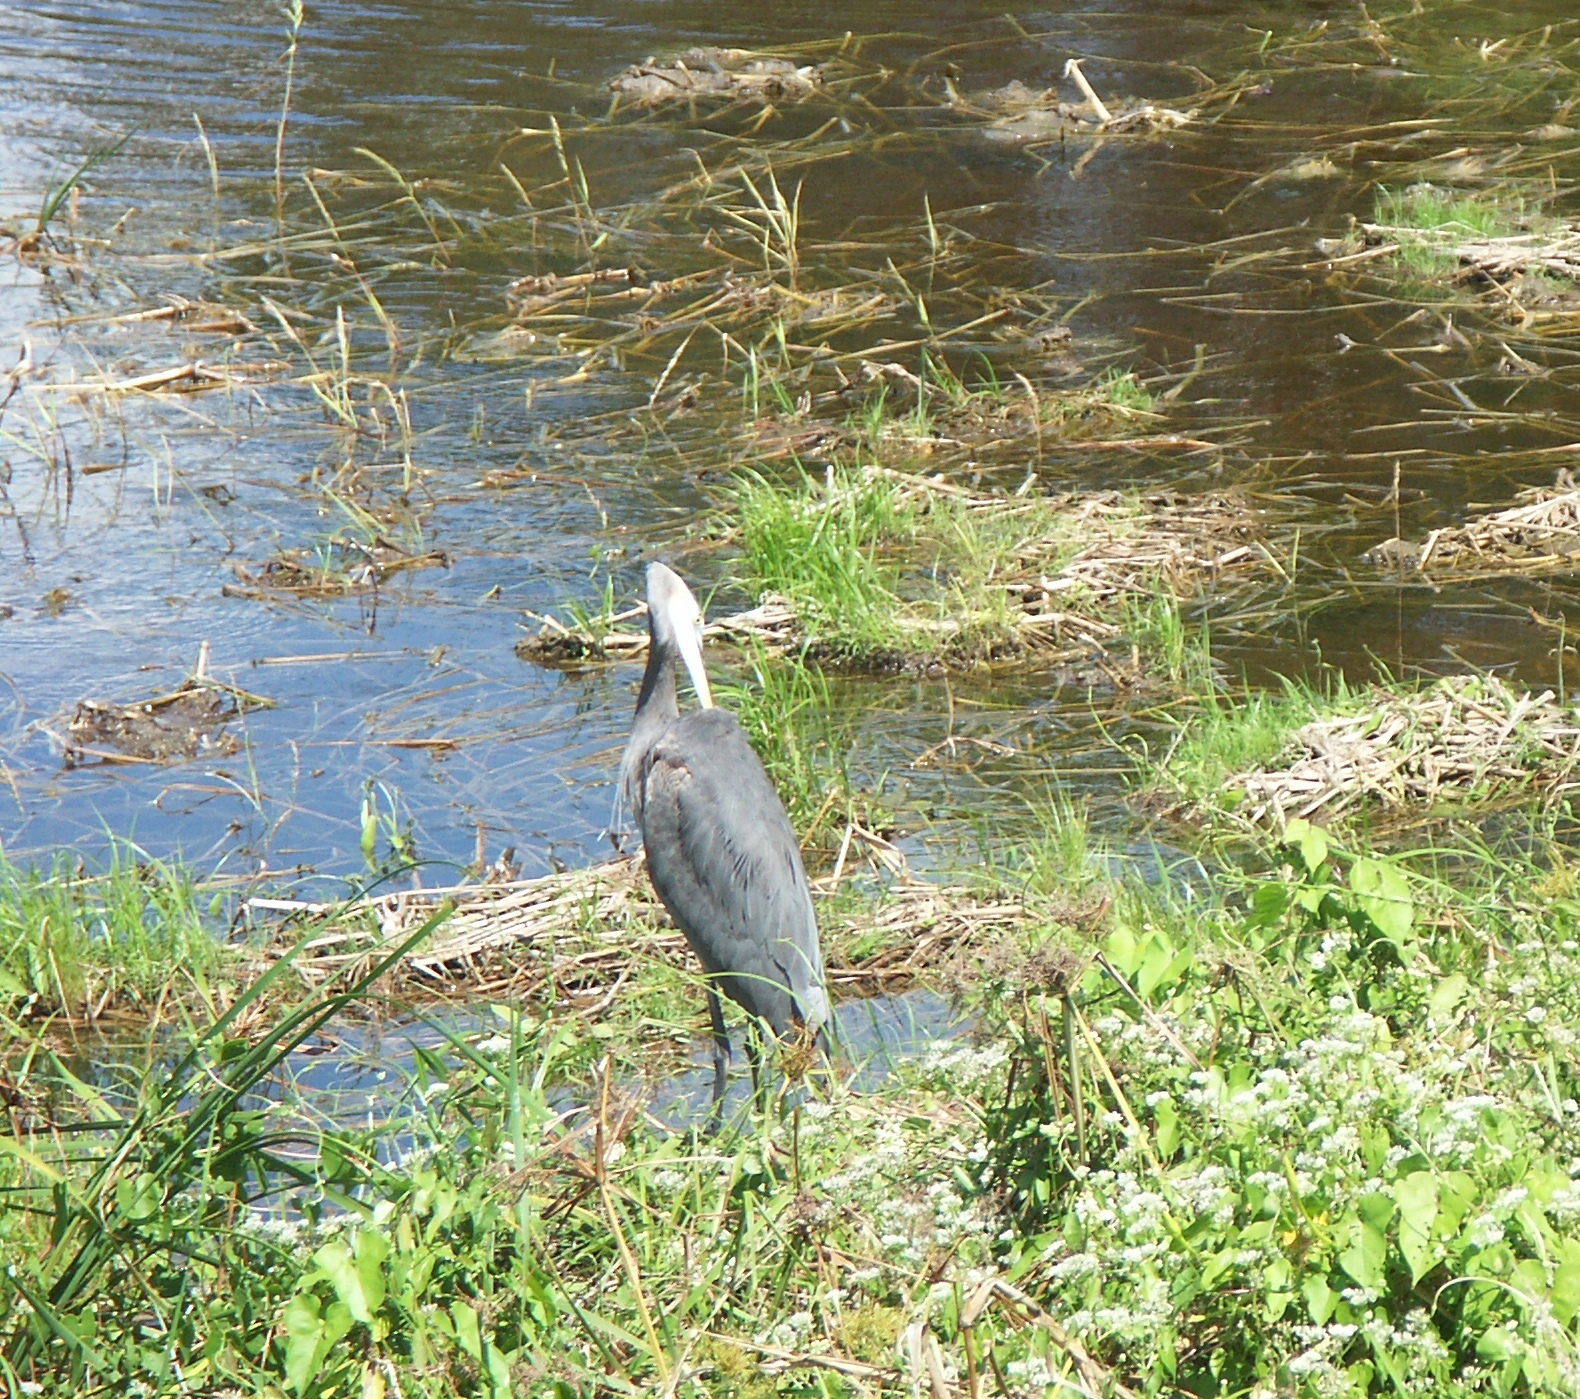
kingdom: Animalia
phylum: Chordata
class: Aves
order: Pelecaniformes
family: Ardeidae
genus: Ardea
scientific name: Ardea herodias
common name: Great blue heron
